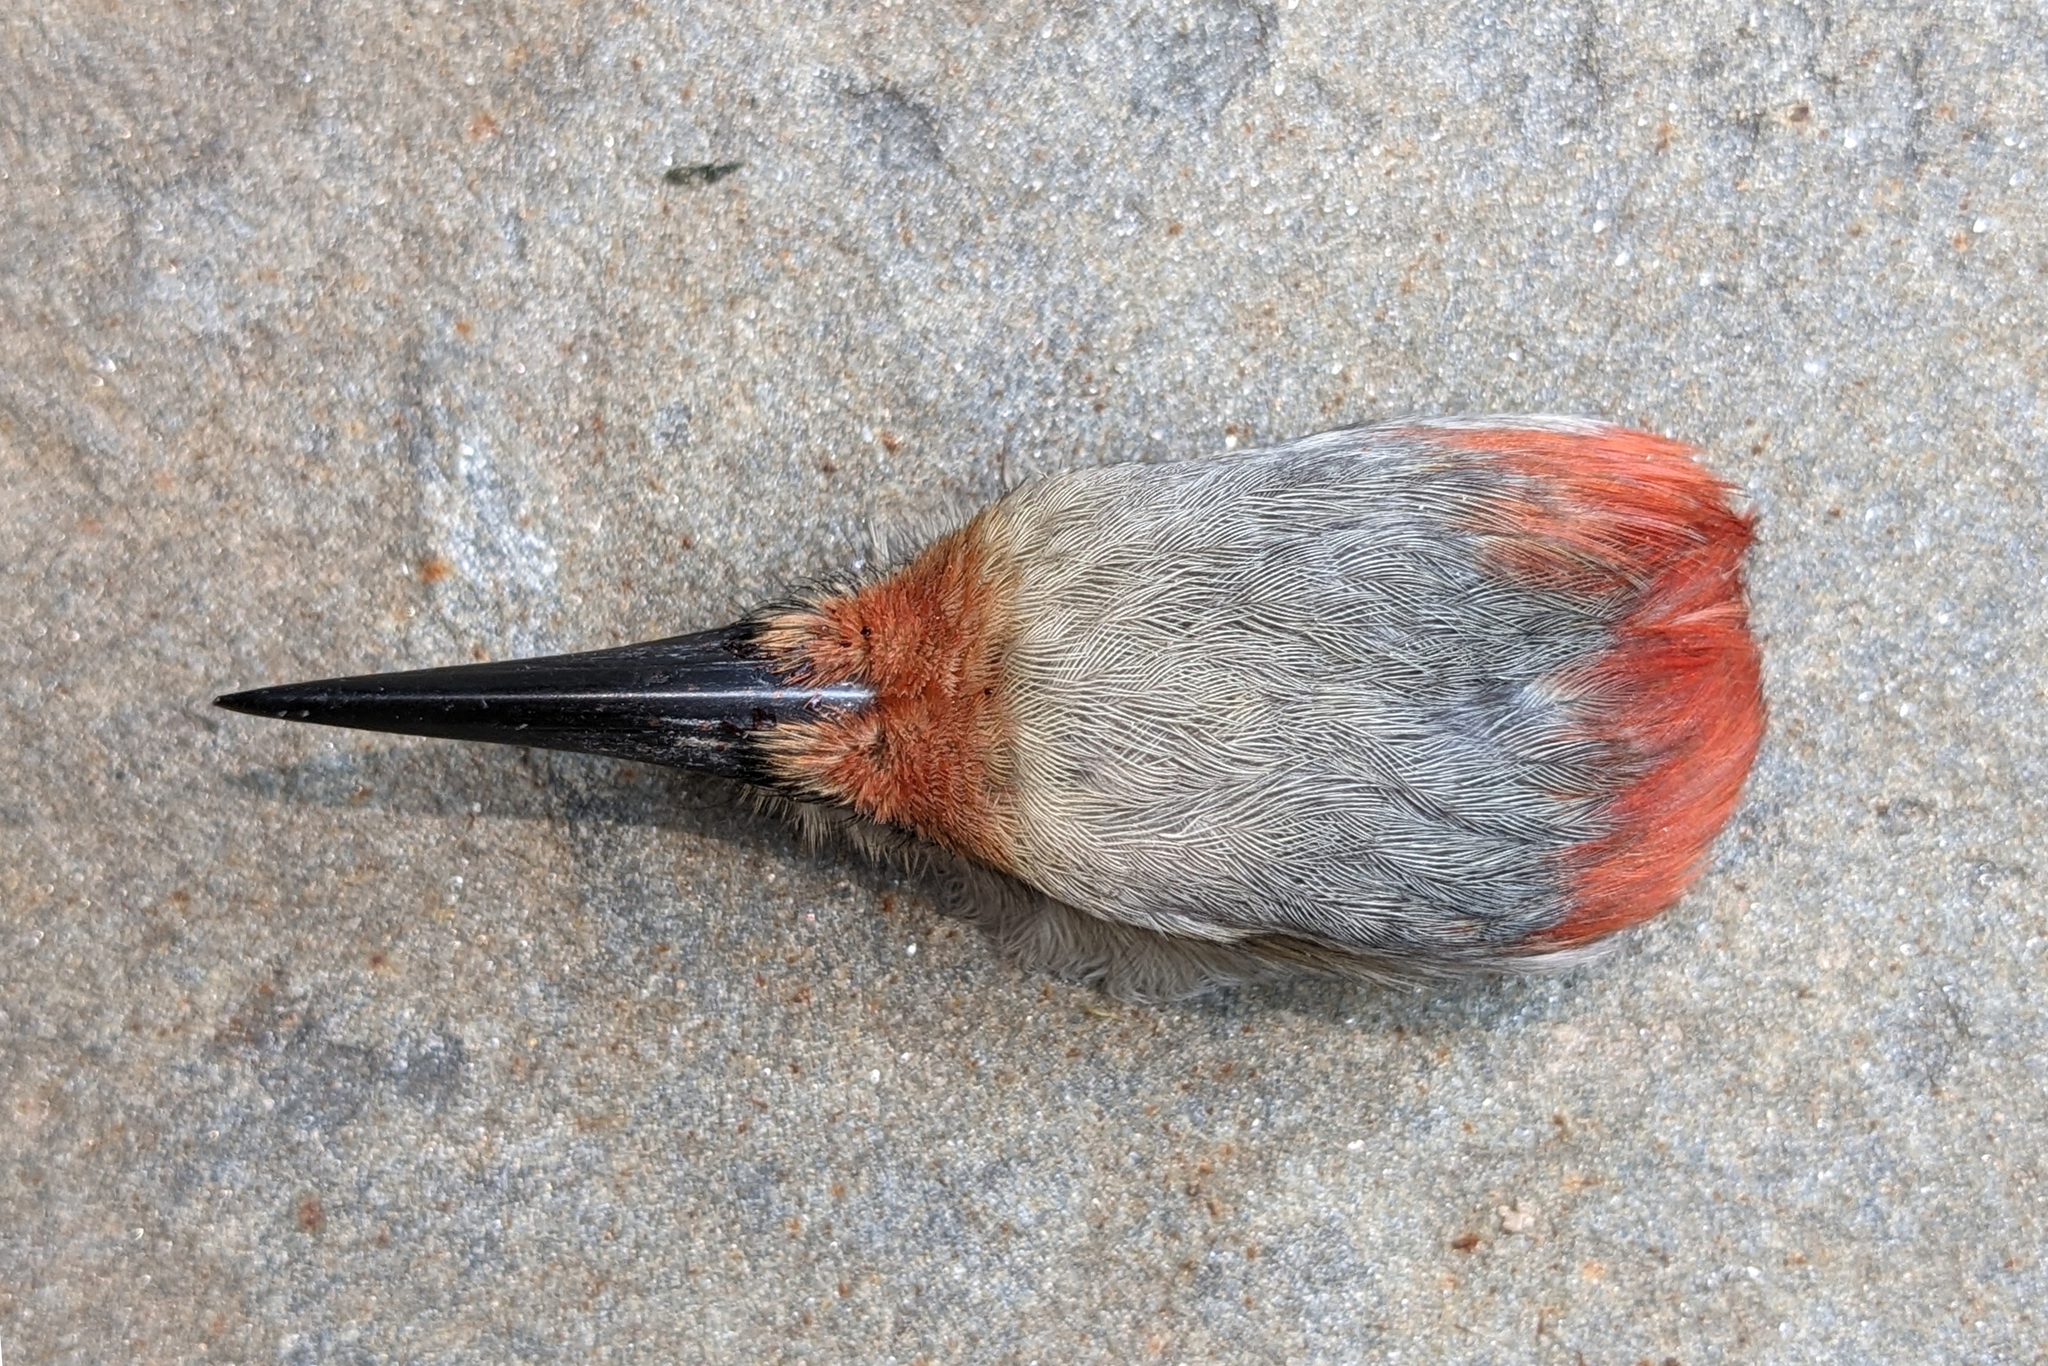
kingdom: Animalia
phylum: Chordata
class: Aves
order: Piciformes
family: Picidae
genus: Melanerpes
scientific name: Melanerpes carolinus
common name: Red-bellied woodpecker
